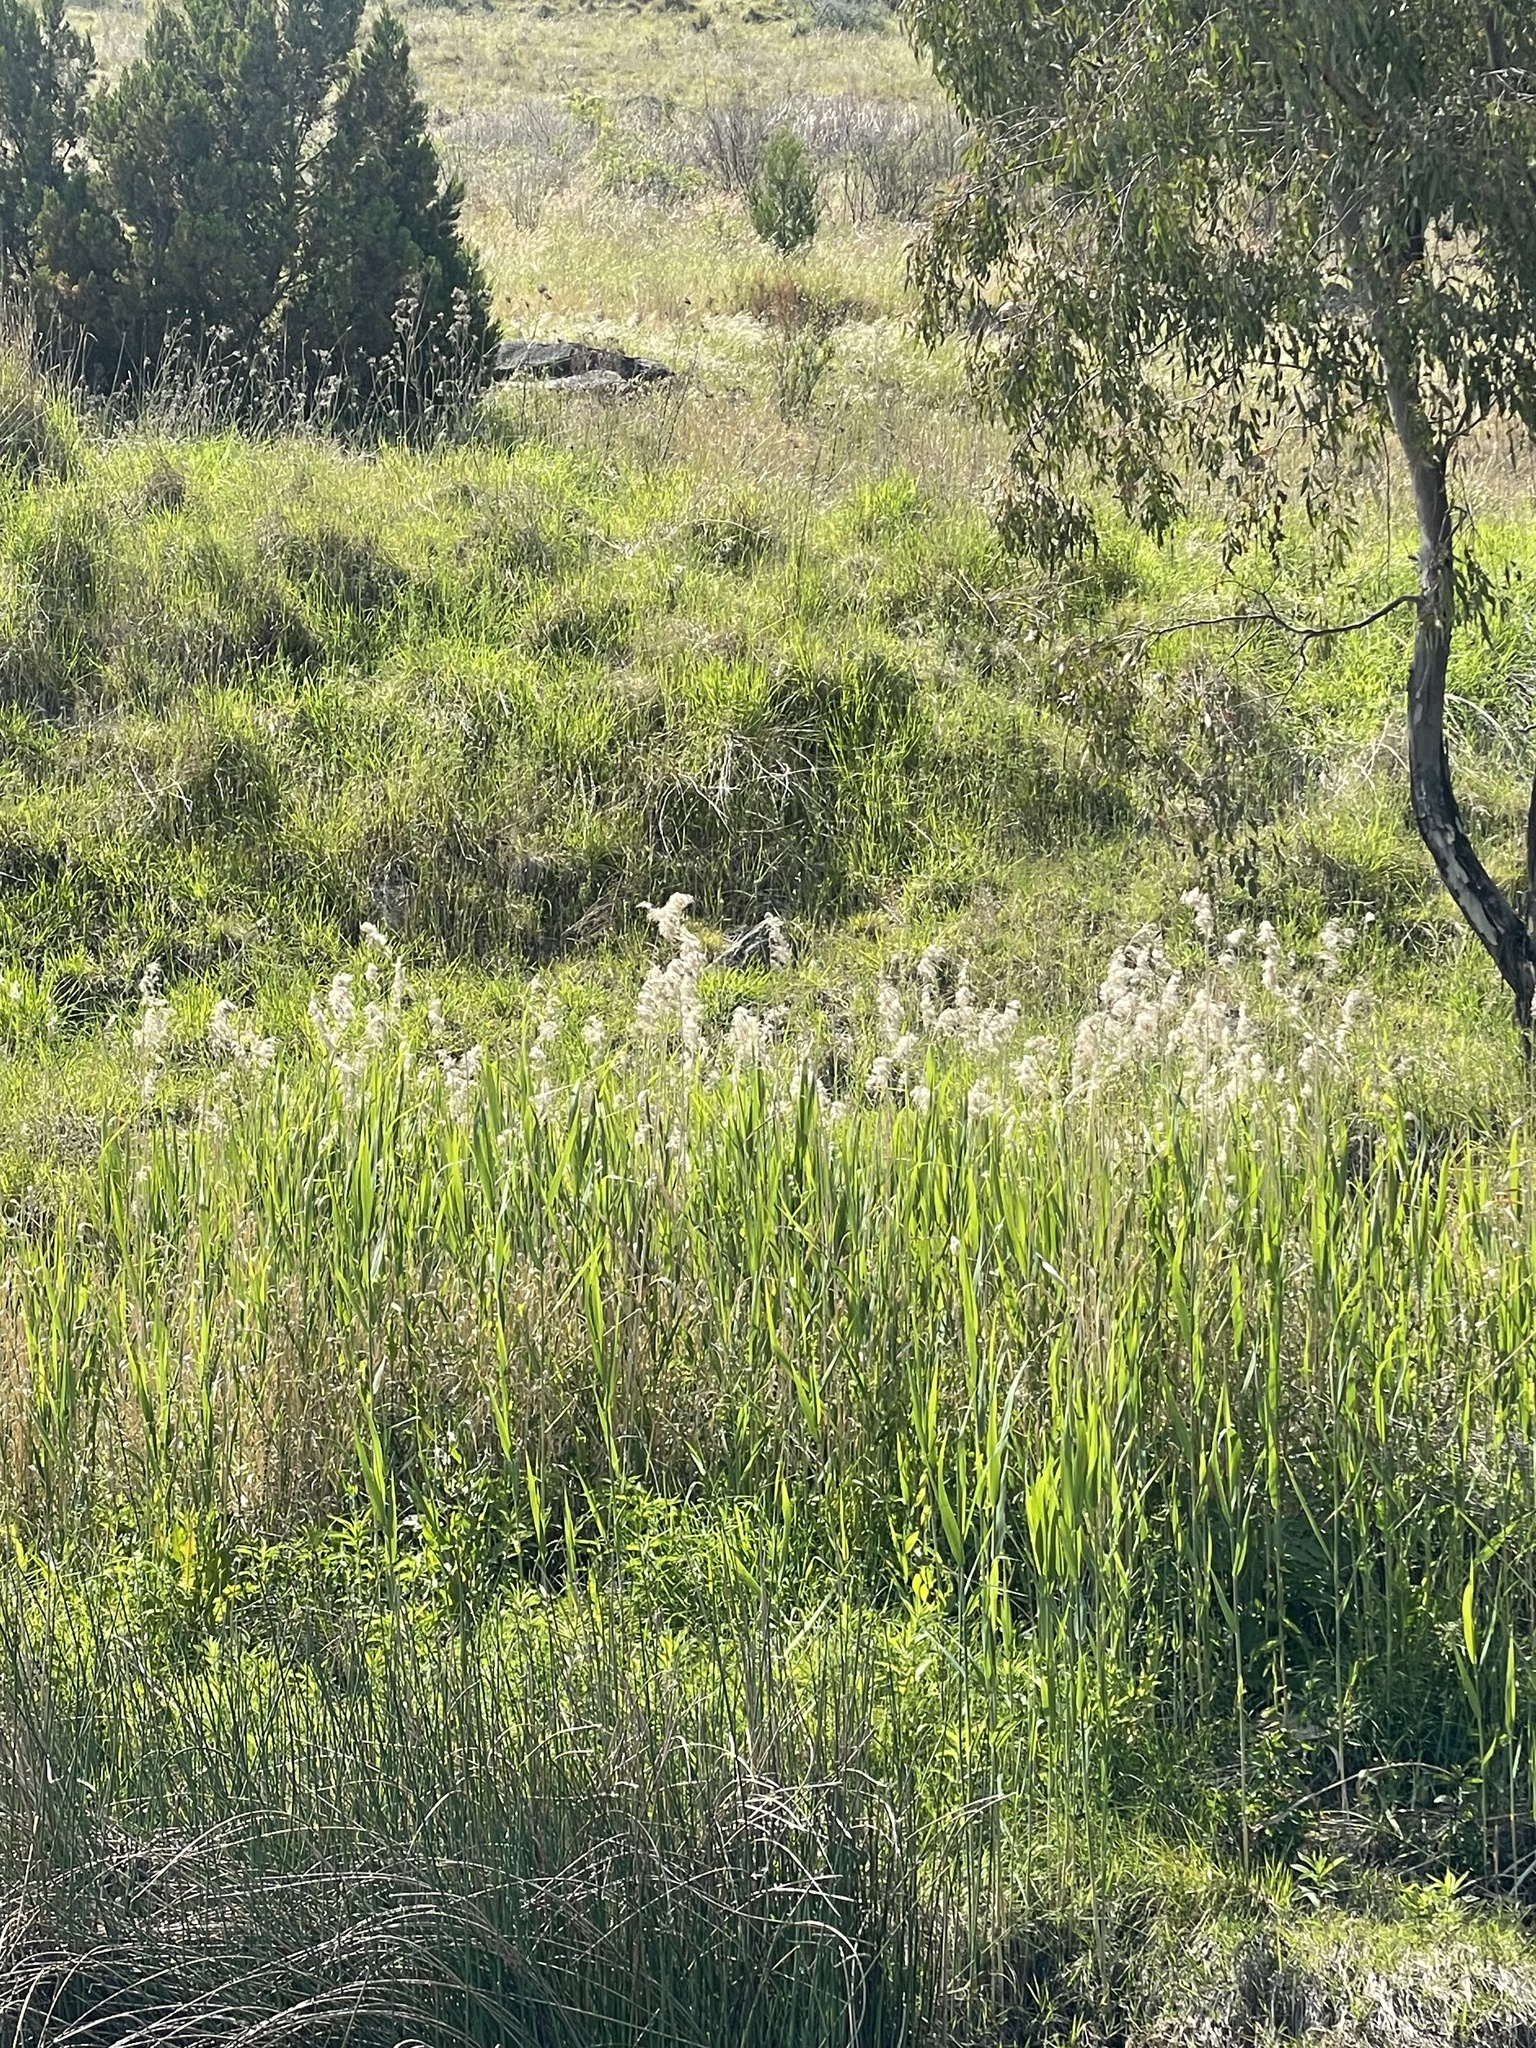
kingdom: Plantae
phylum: Tracheophyta
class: Liliopsida
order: Poales
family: Poaceae
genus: Phragmites
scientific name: Phragmites australis
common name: Common reed
